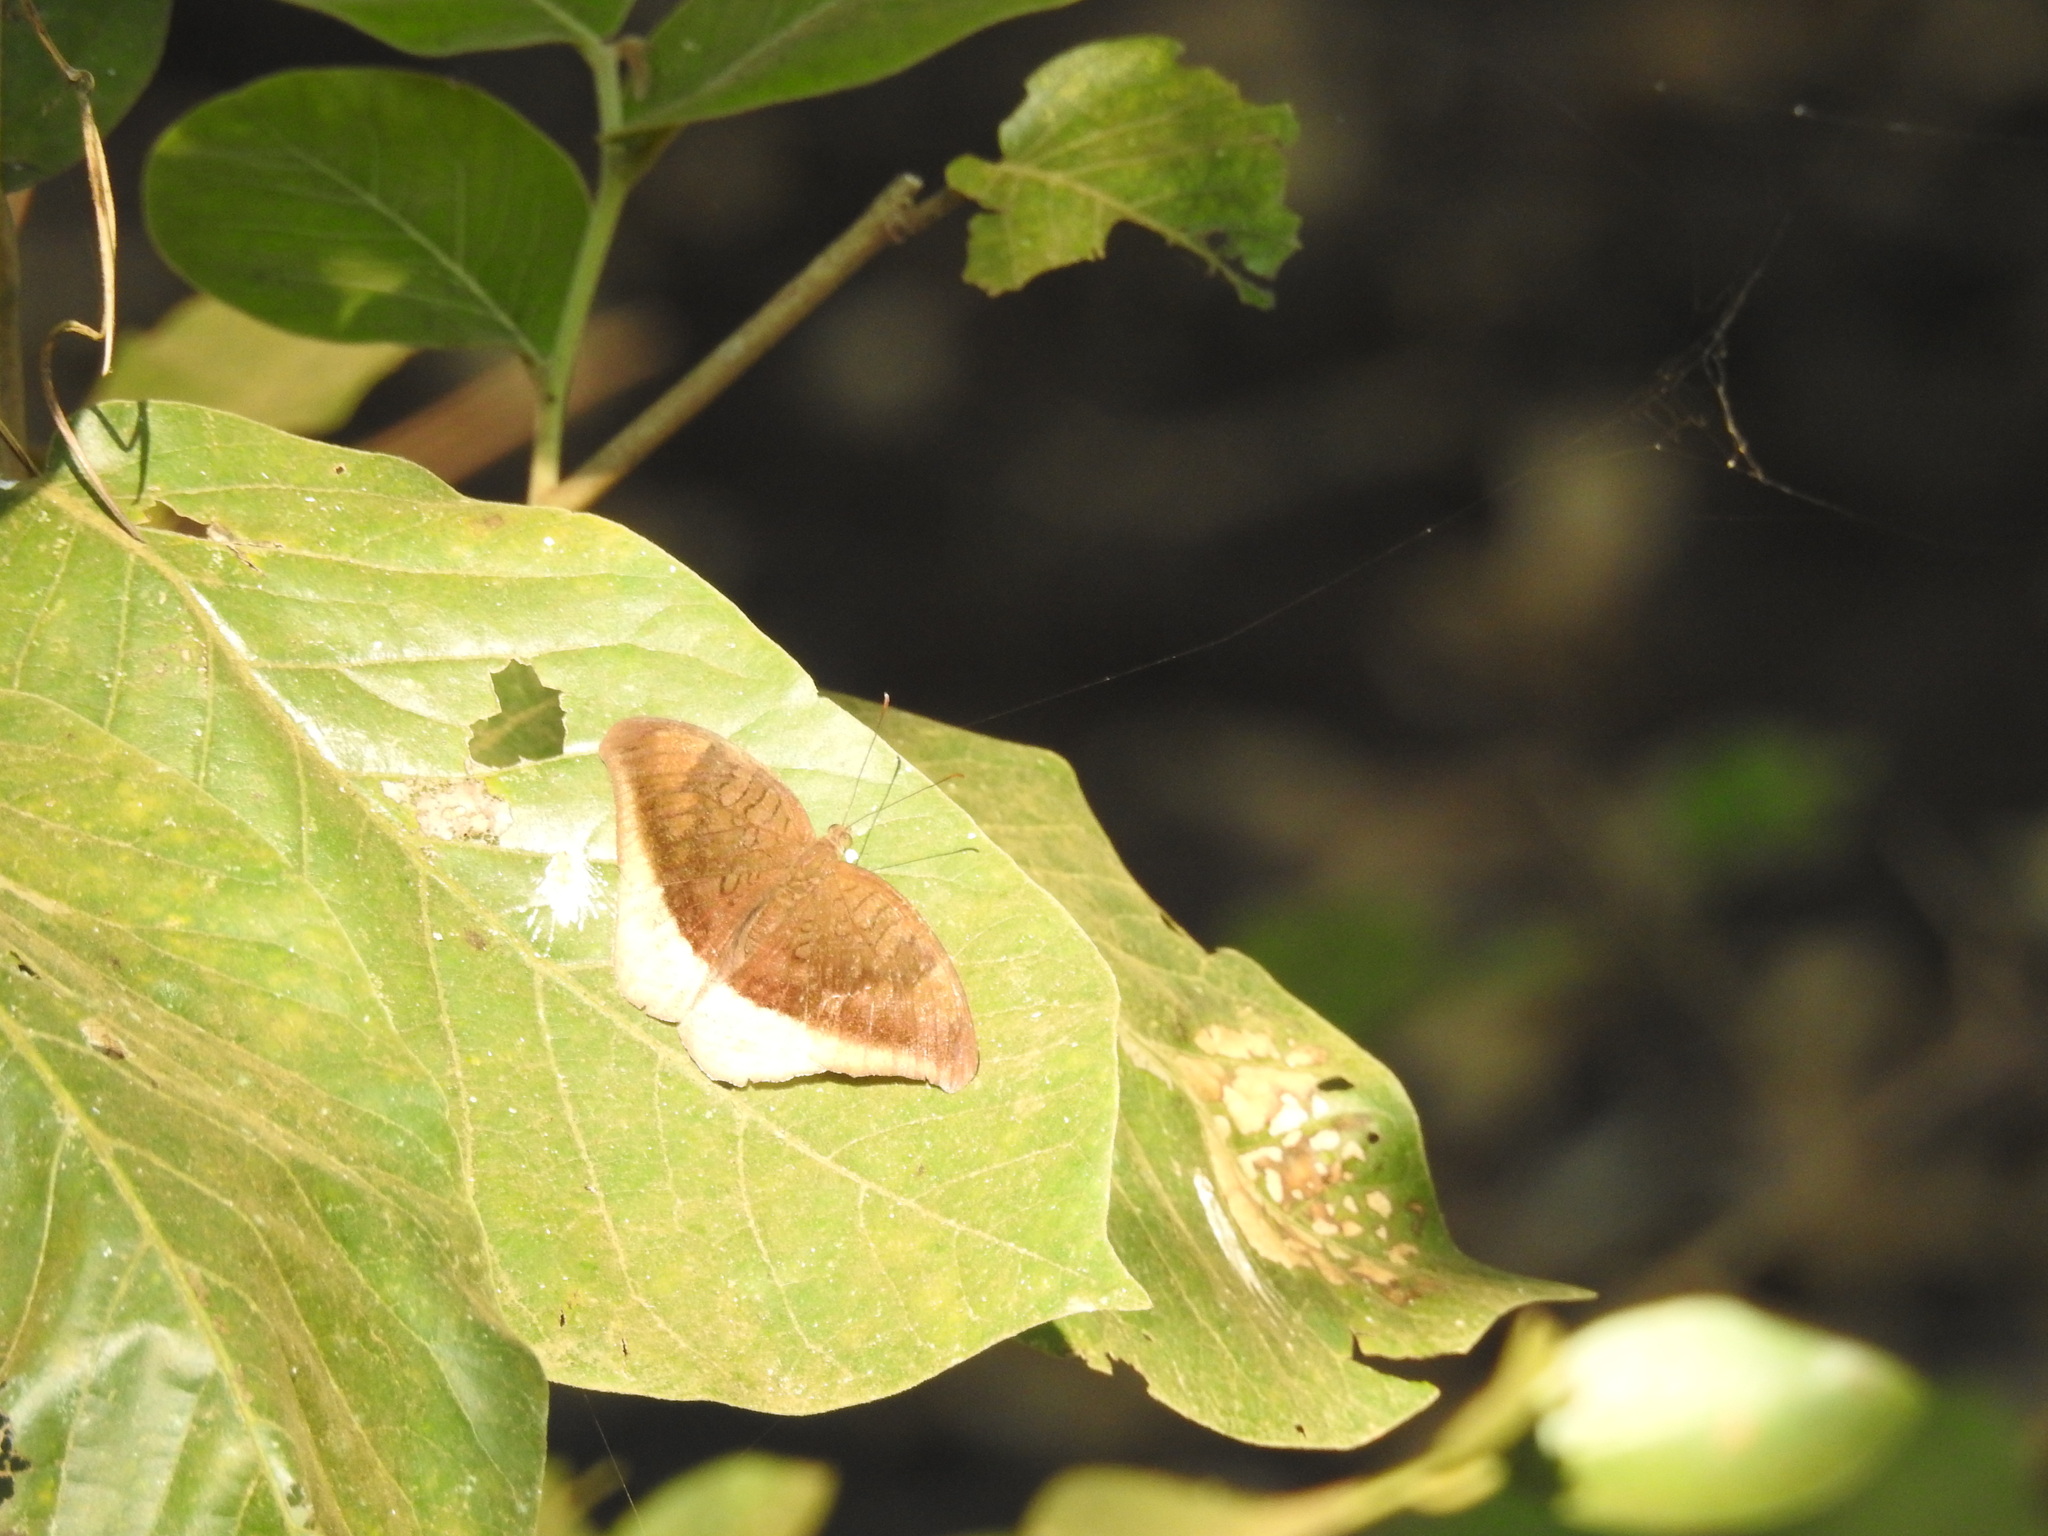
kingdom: Animalia
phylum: Arthropoda
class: Insecta
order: Lepidoptera
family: Nymphalidae
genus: Tanaecia
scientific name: Tanaecia lepidea
